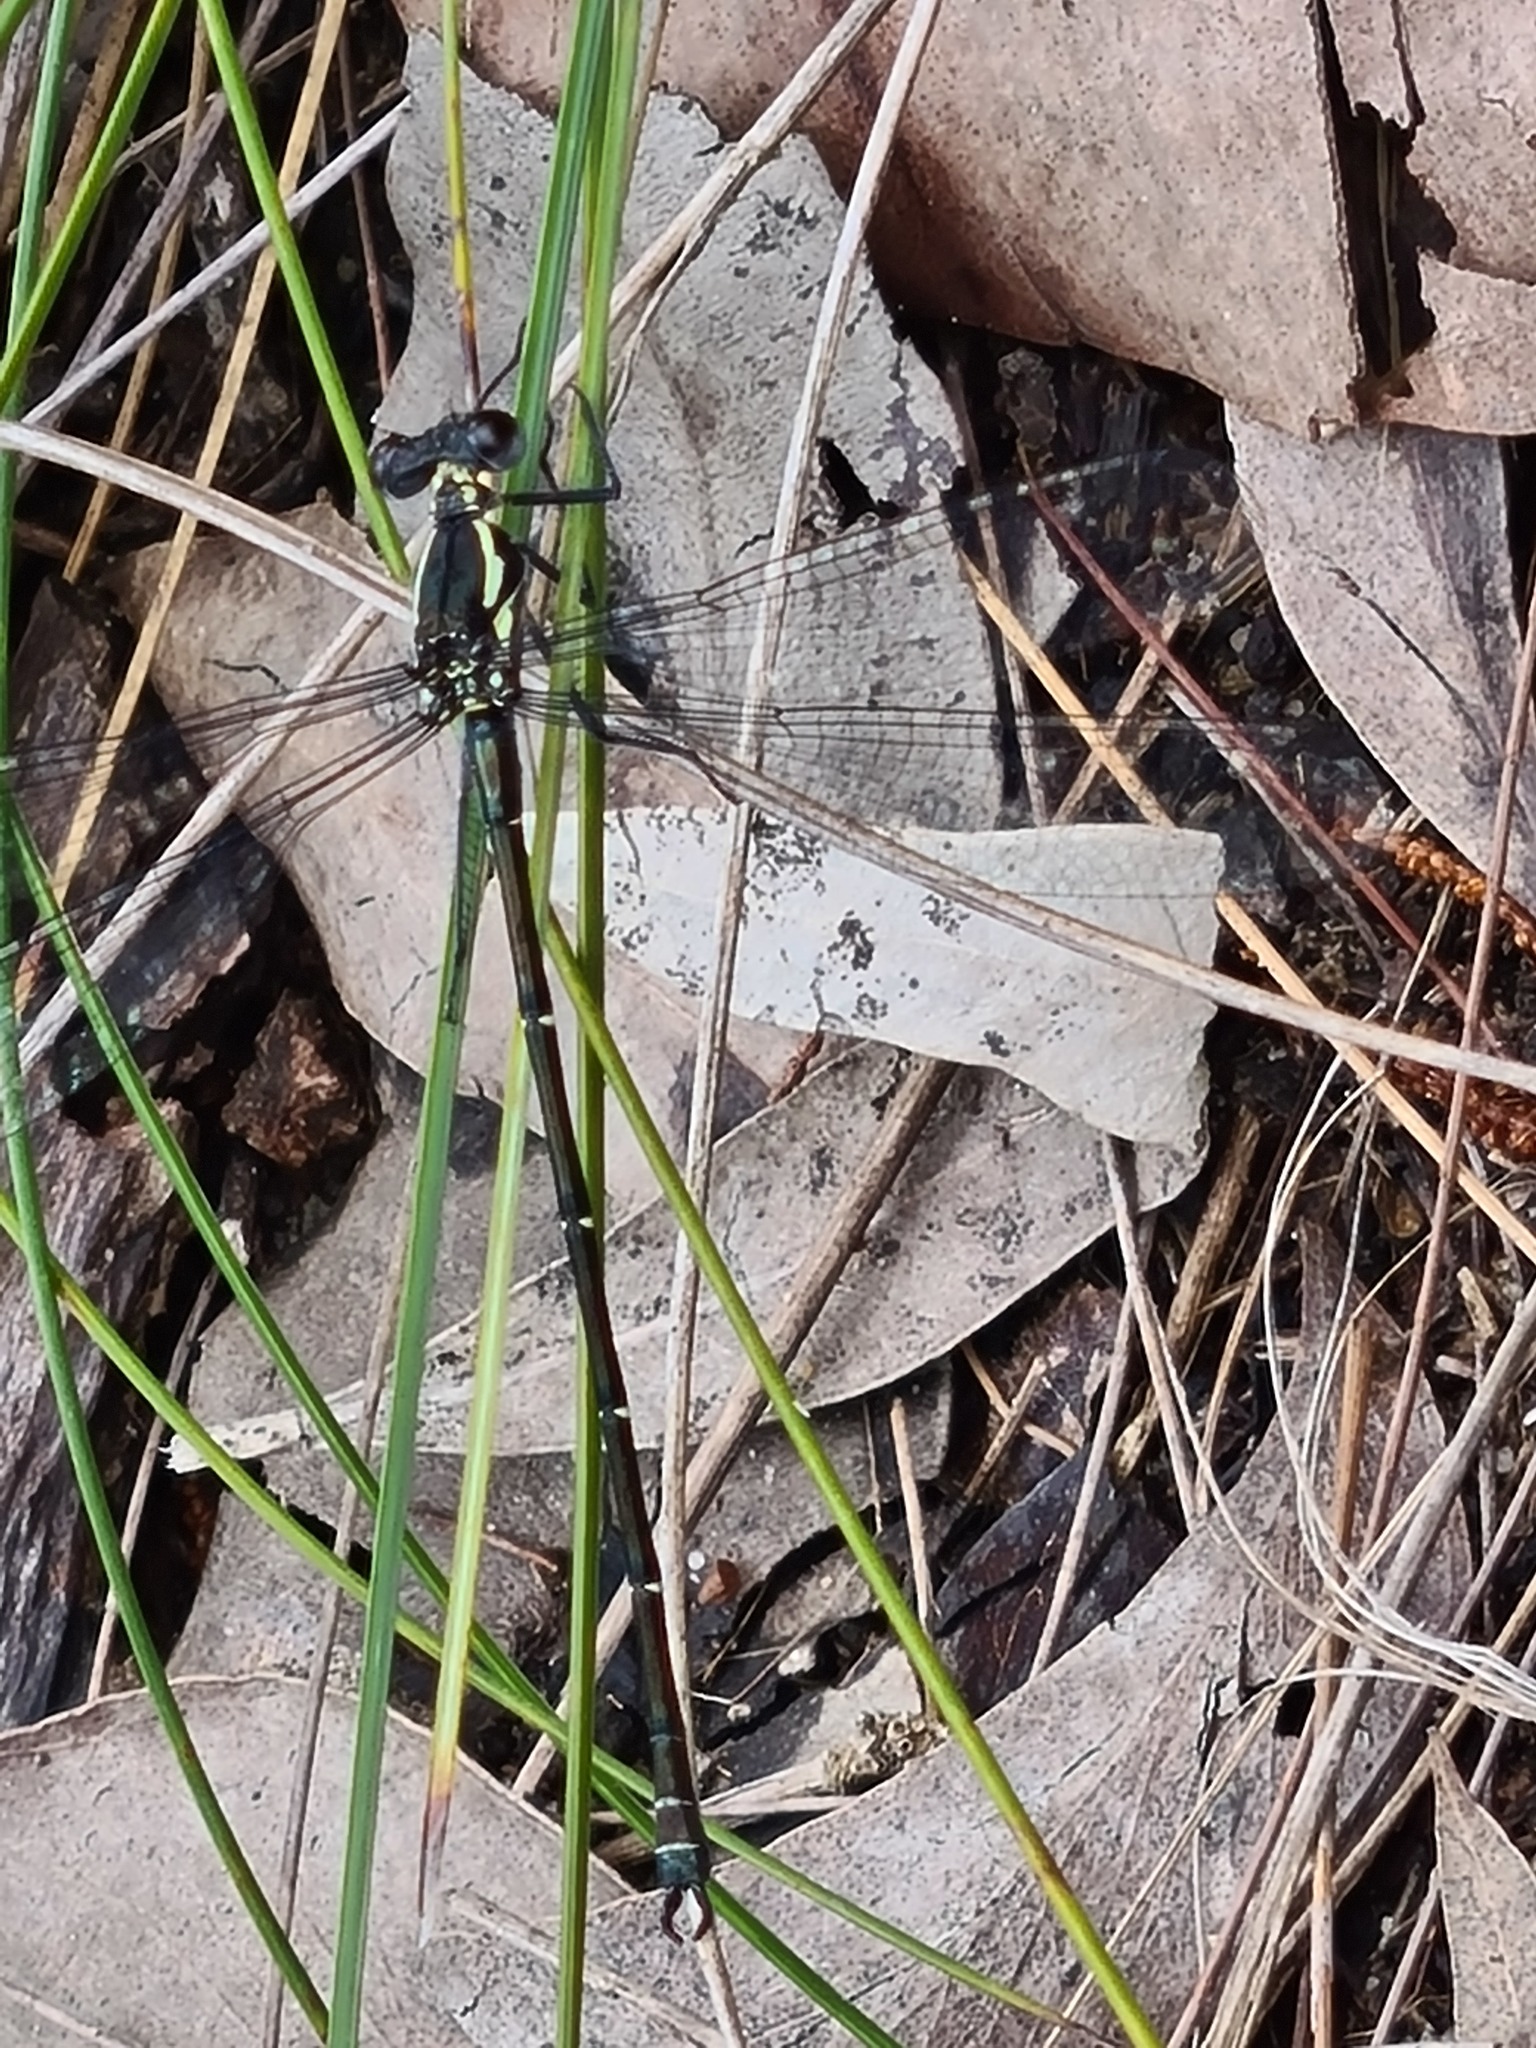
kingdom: Animalia
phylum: Arthropoda
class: Insecta
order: Odonata
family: Argiolestidae
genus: Austroargiolestes
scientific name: Austroargiolestes
